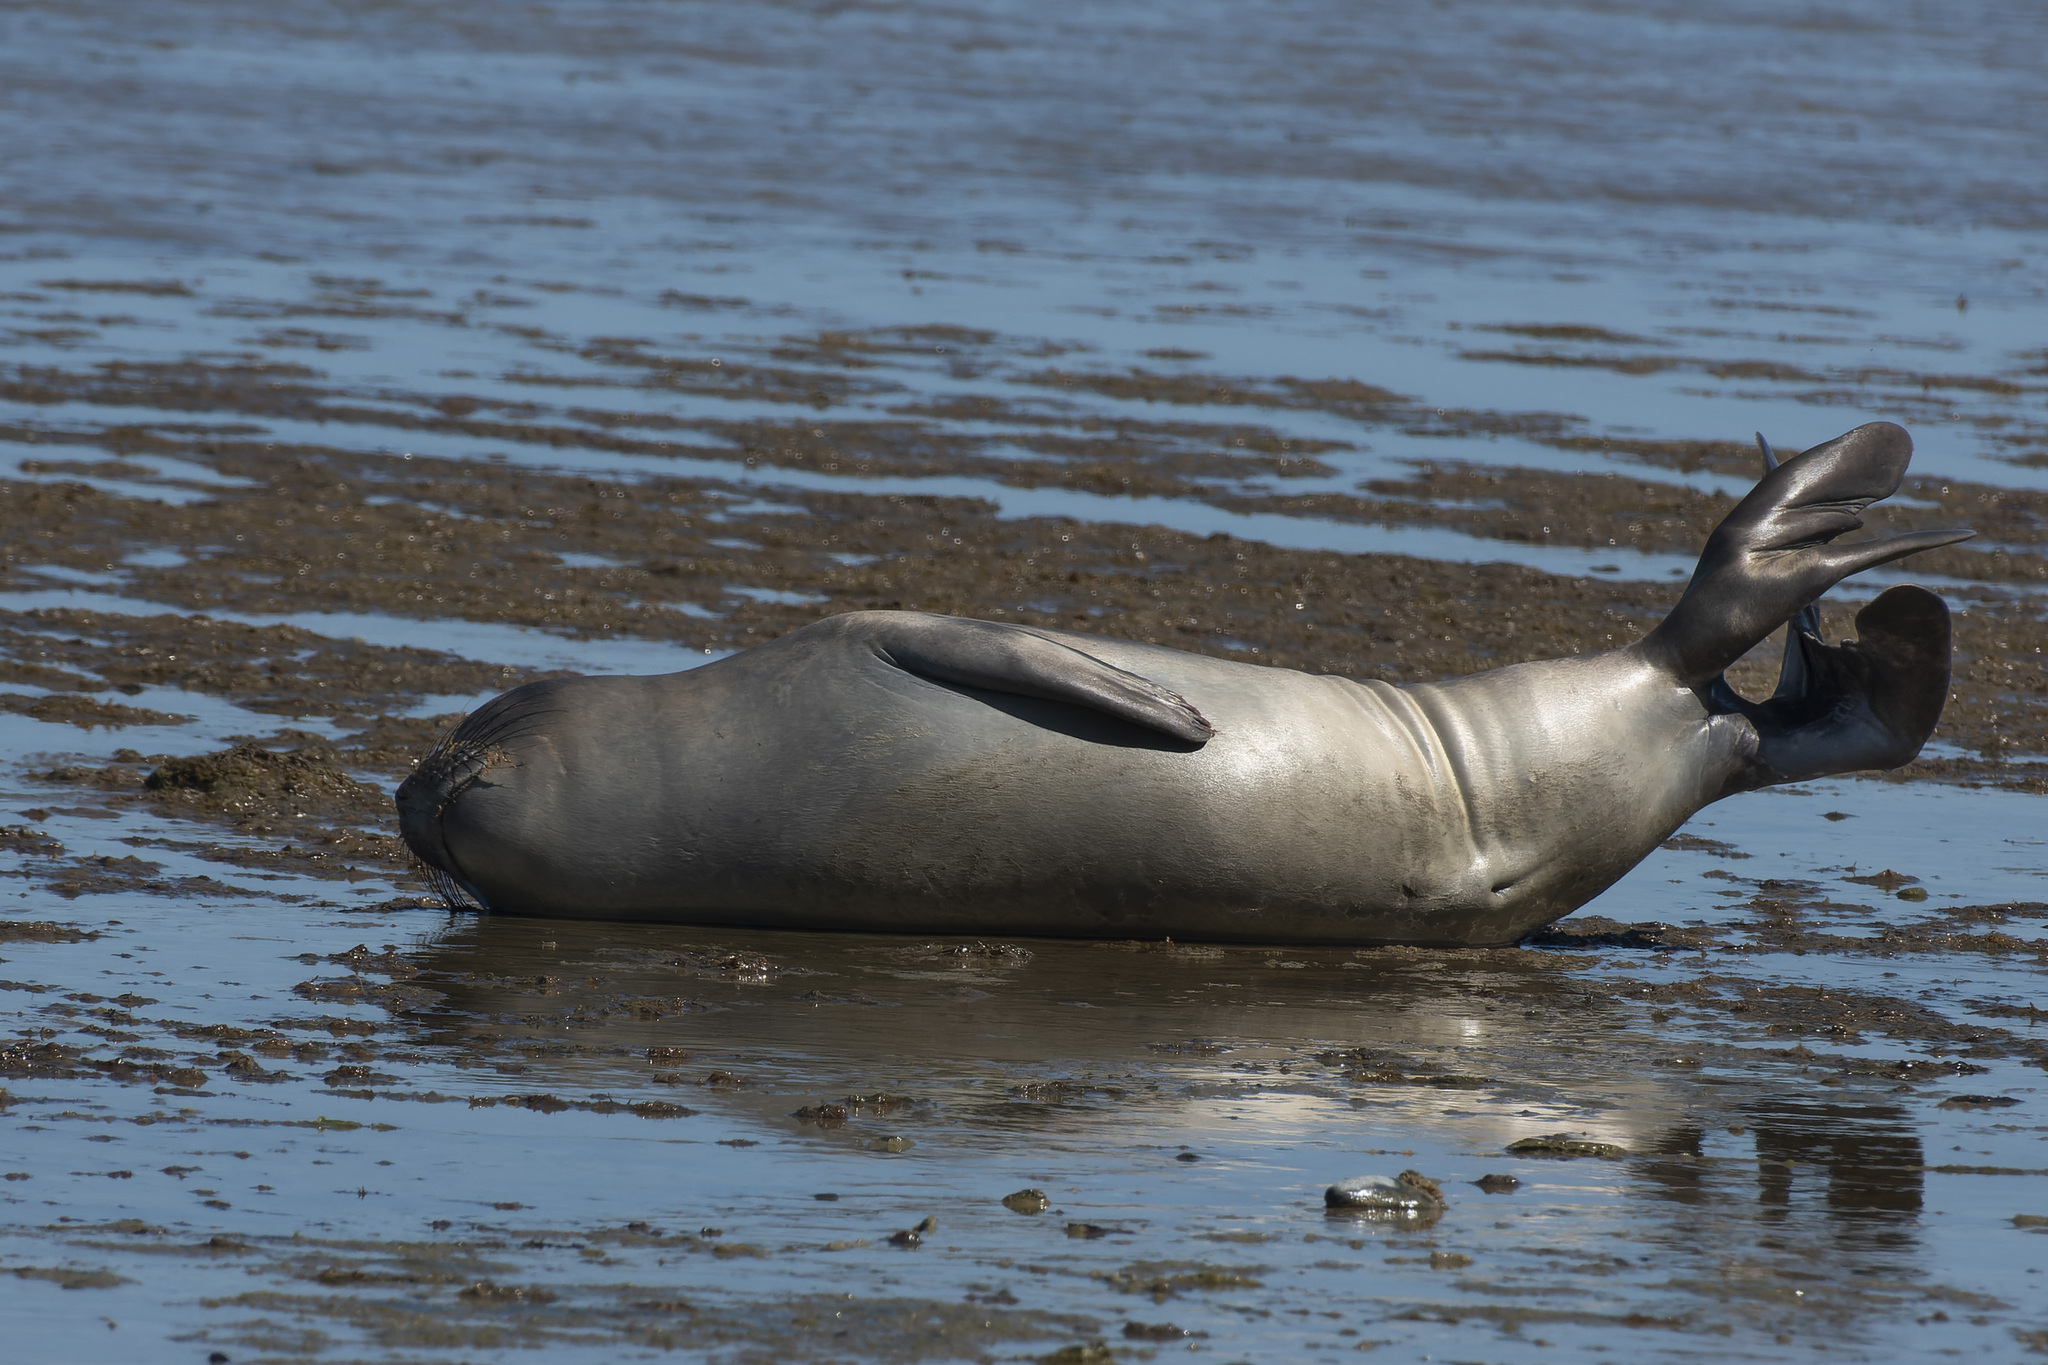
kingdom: Animalia
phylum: Chordata
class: Mammalia
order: Carnivora
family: Phocidae
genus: Mirounga
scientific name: Mirounga leonina
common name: Southern elephant seal
